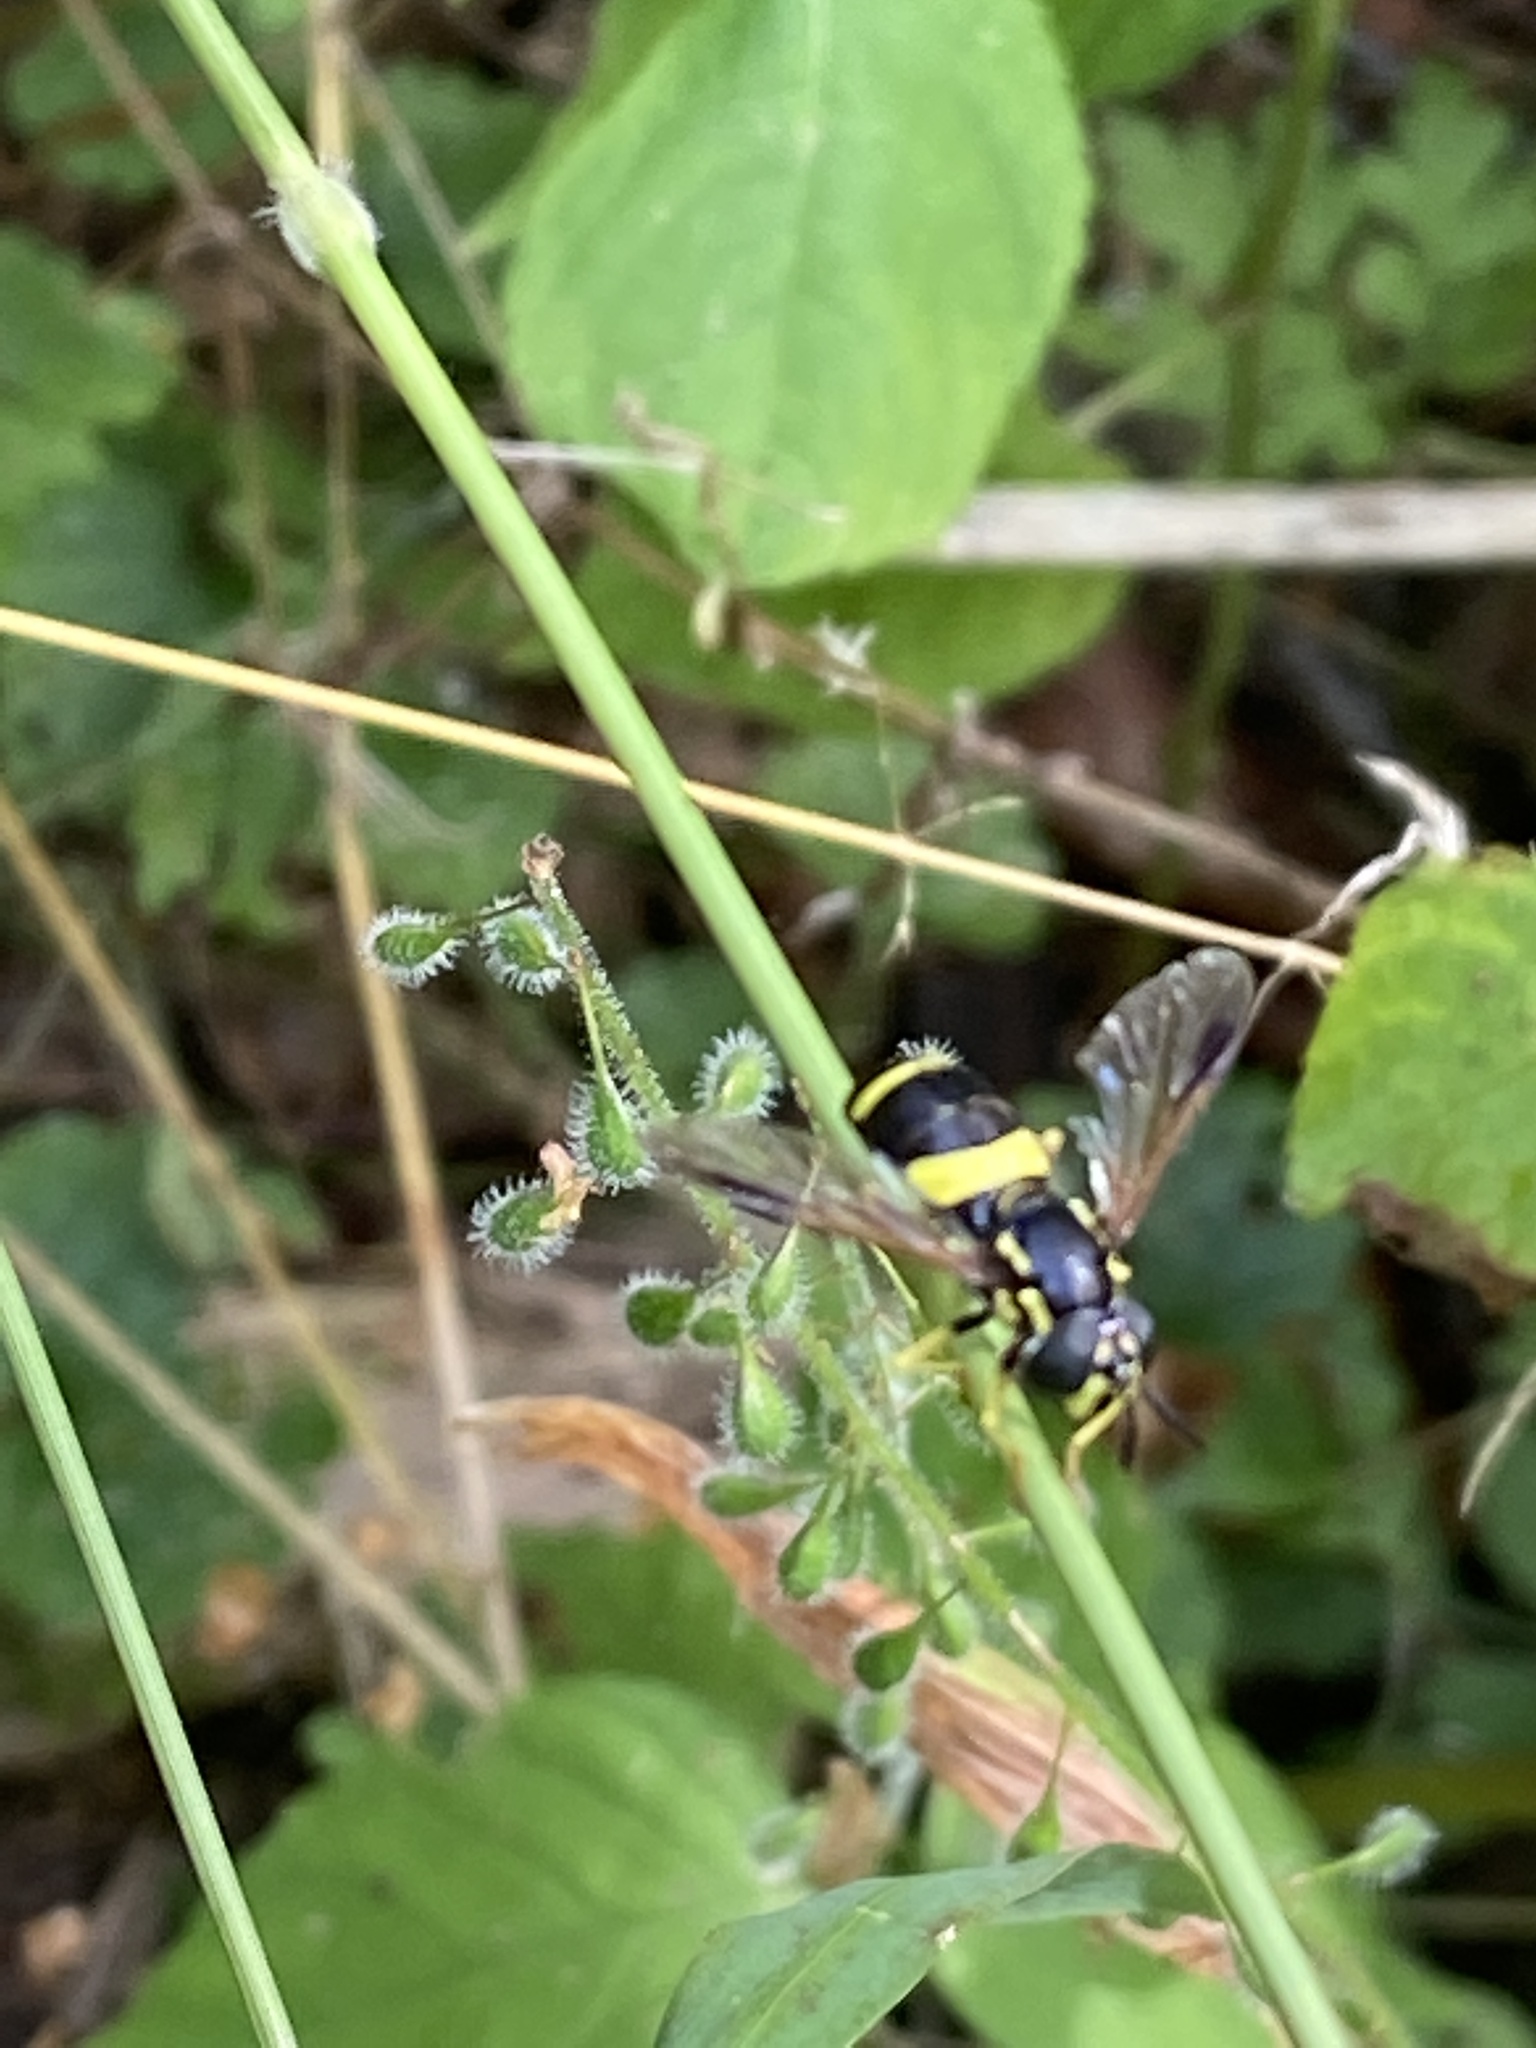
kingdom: Animalia
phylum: Arthropoda
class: Insecta
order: Diptera
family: Syrphidae
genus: Chrysotoxum
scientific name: Chrysotoxum bicincta
